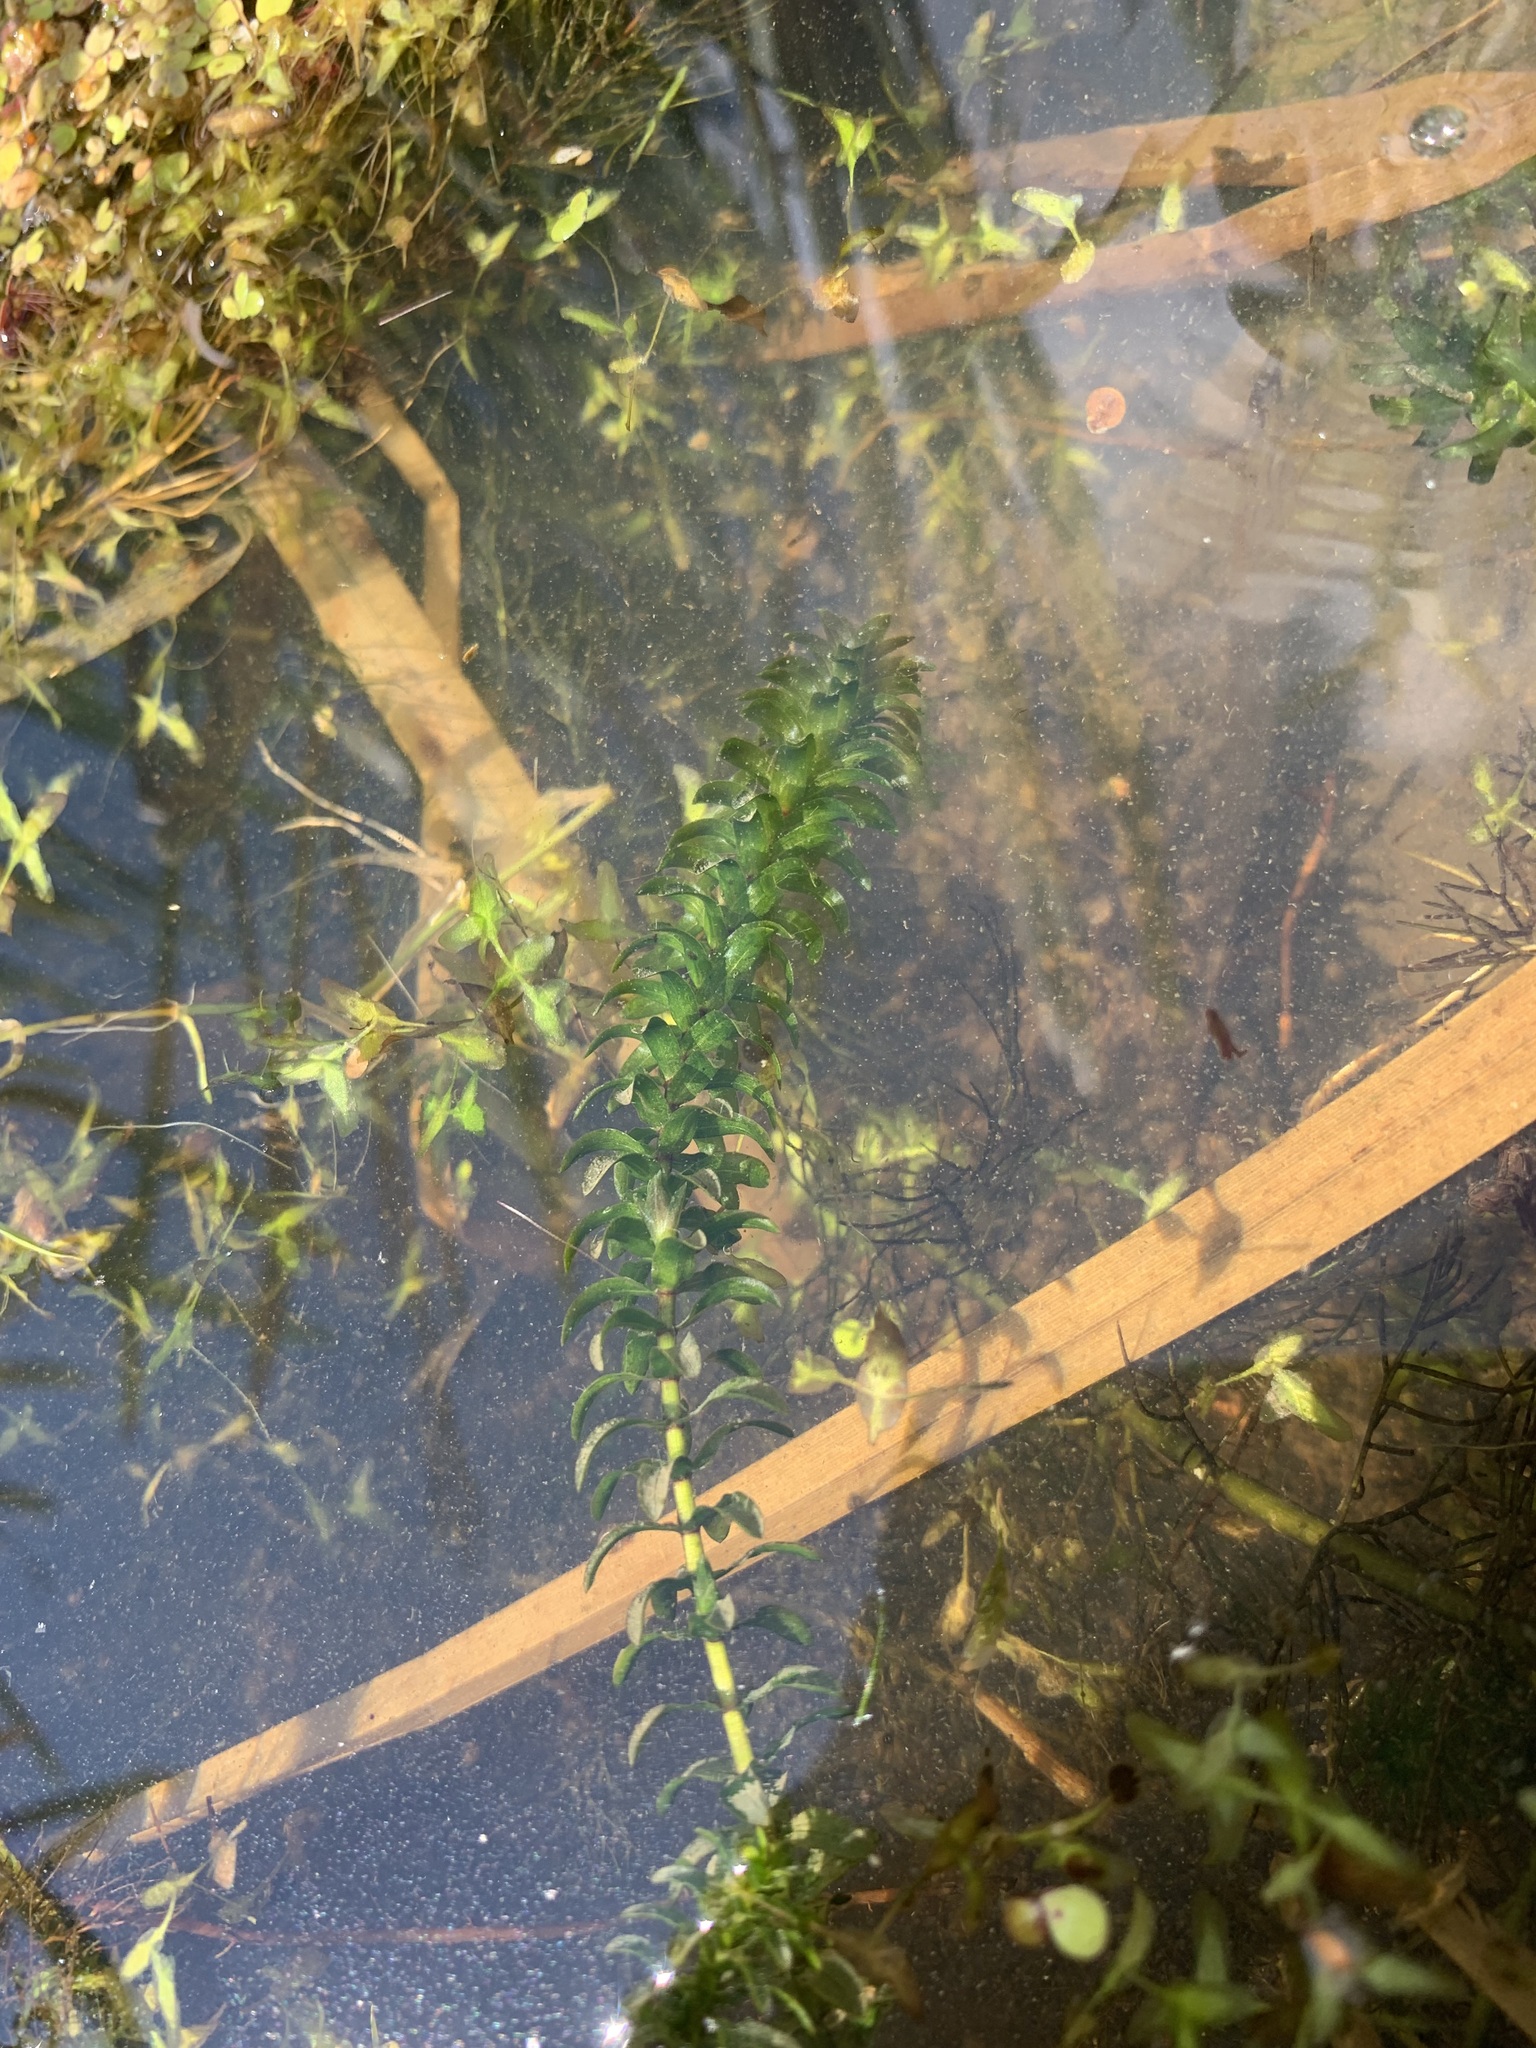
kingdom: Plantae
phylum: Tracheophyta
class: Liliopsida
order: Alismatales
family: Hydrocharitaceae
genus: Elodea
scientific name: Elodea canadensis
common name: Canadian waterweed
